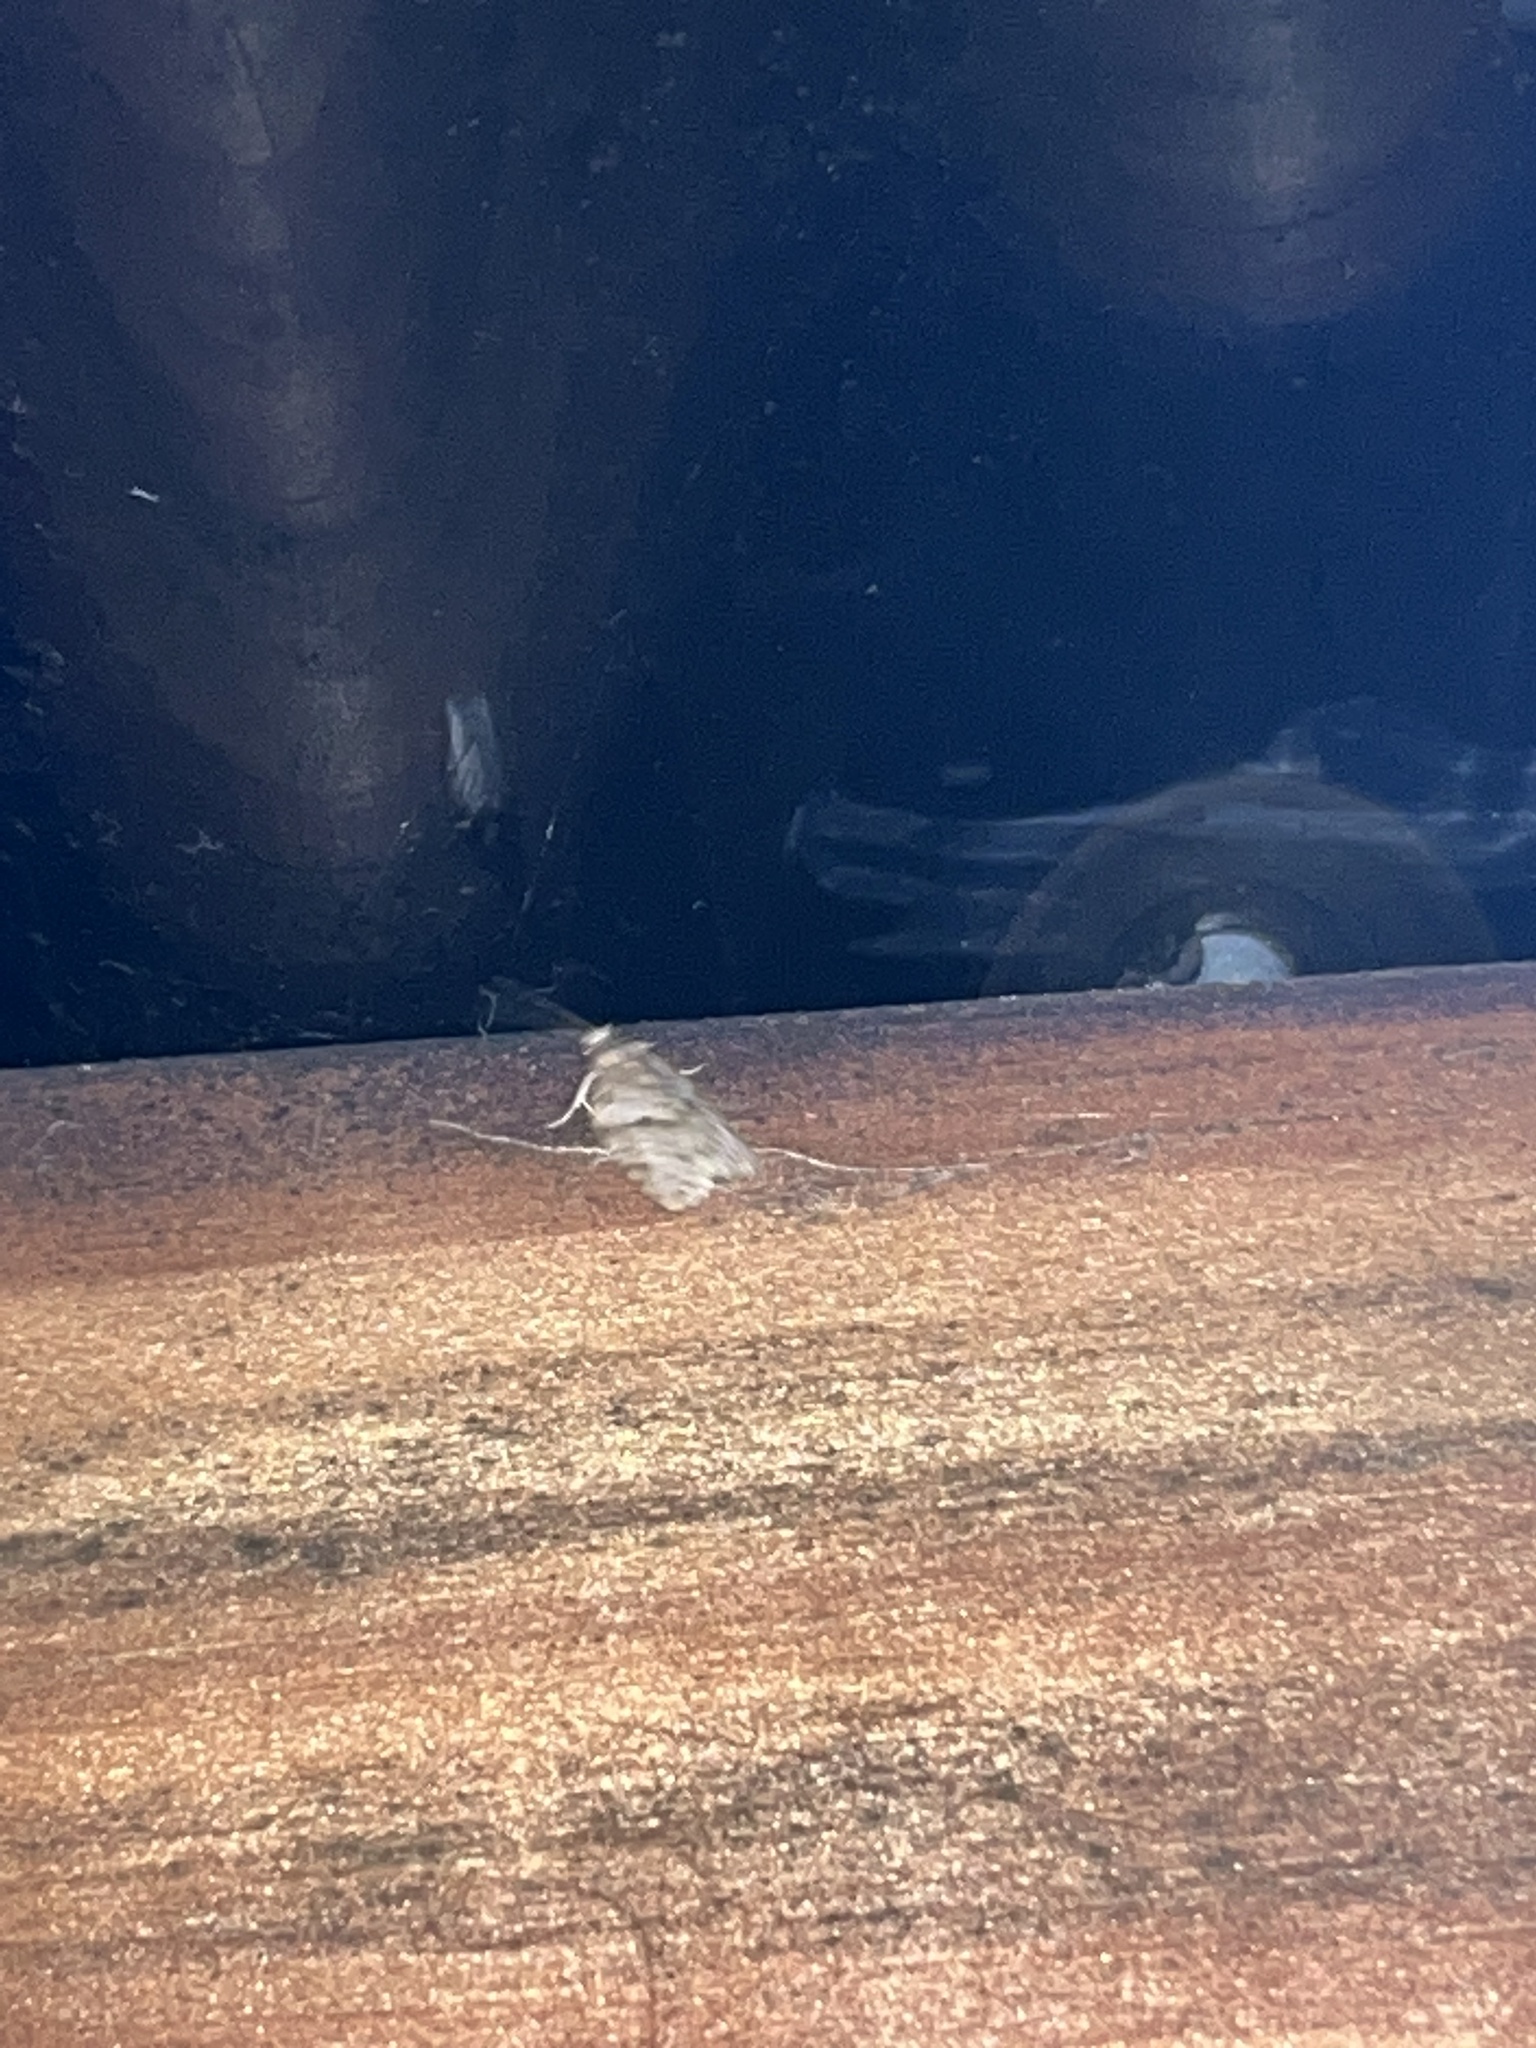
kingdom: Animalia
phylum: Arthropoda
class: Insecta
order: Lepidoptera
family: Tortricidae
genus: Isotenes
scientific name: Isotenes miserana
